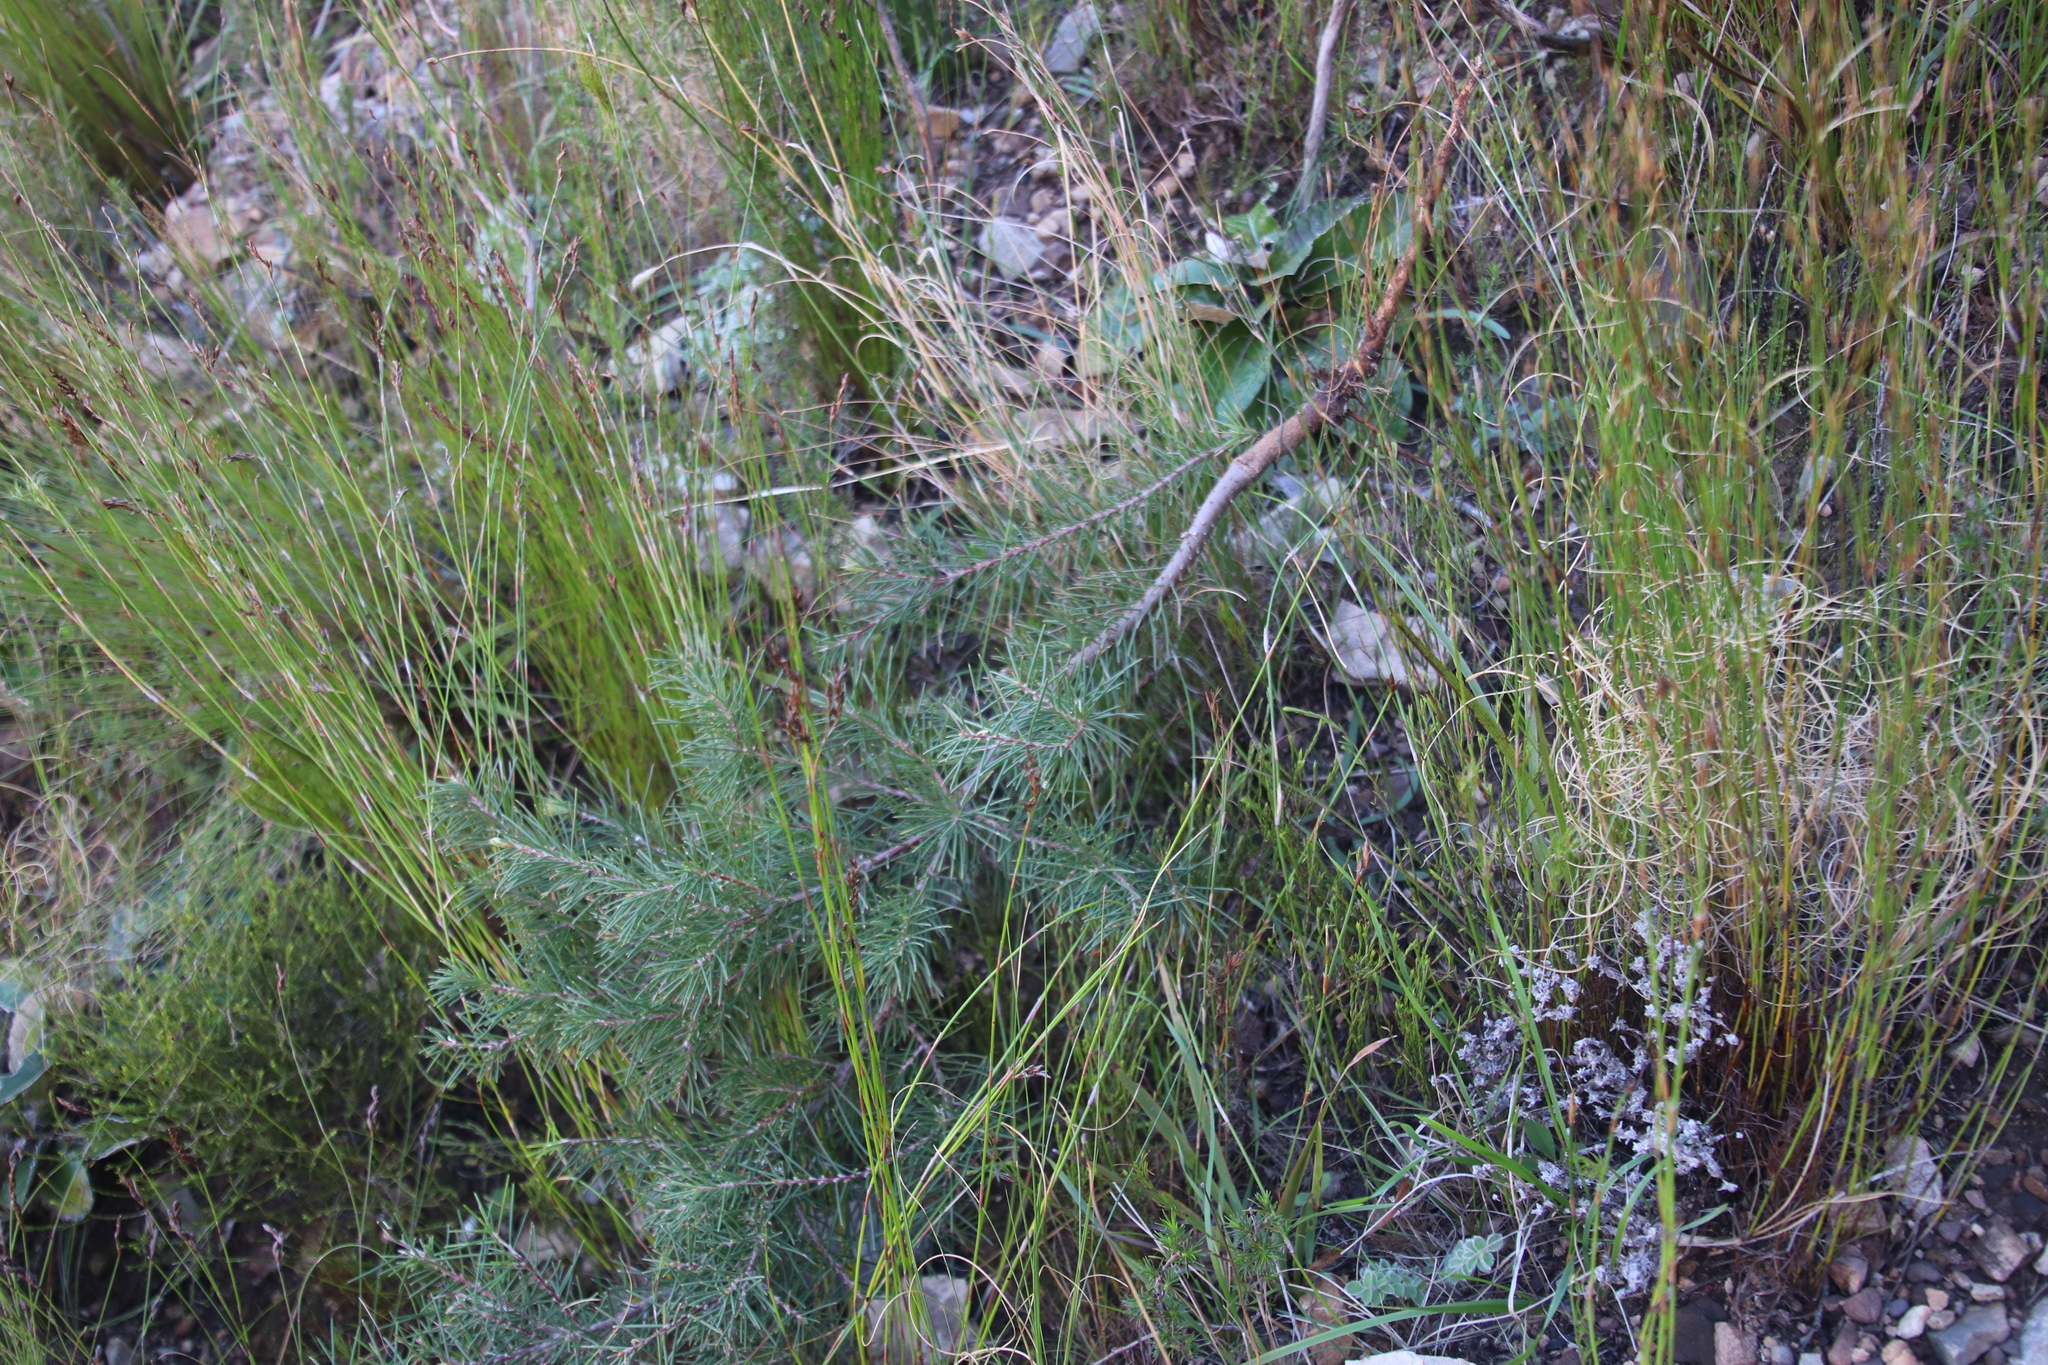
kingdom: Plantae
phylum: Tracheophyta
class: Magnoliopsida
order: Proteales
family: Proteaceae
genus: Hakea
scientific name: Hakea sericea
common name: Needle bush
